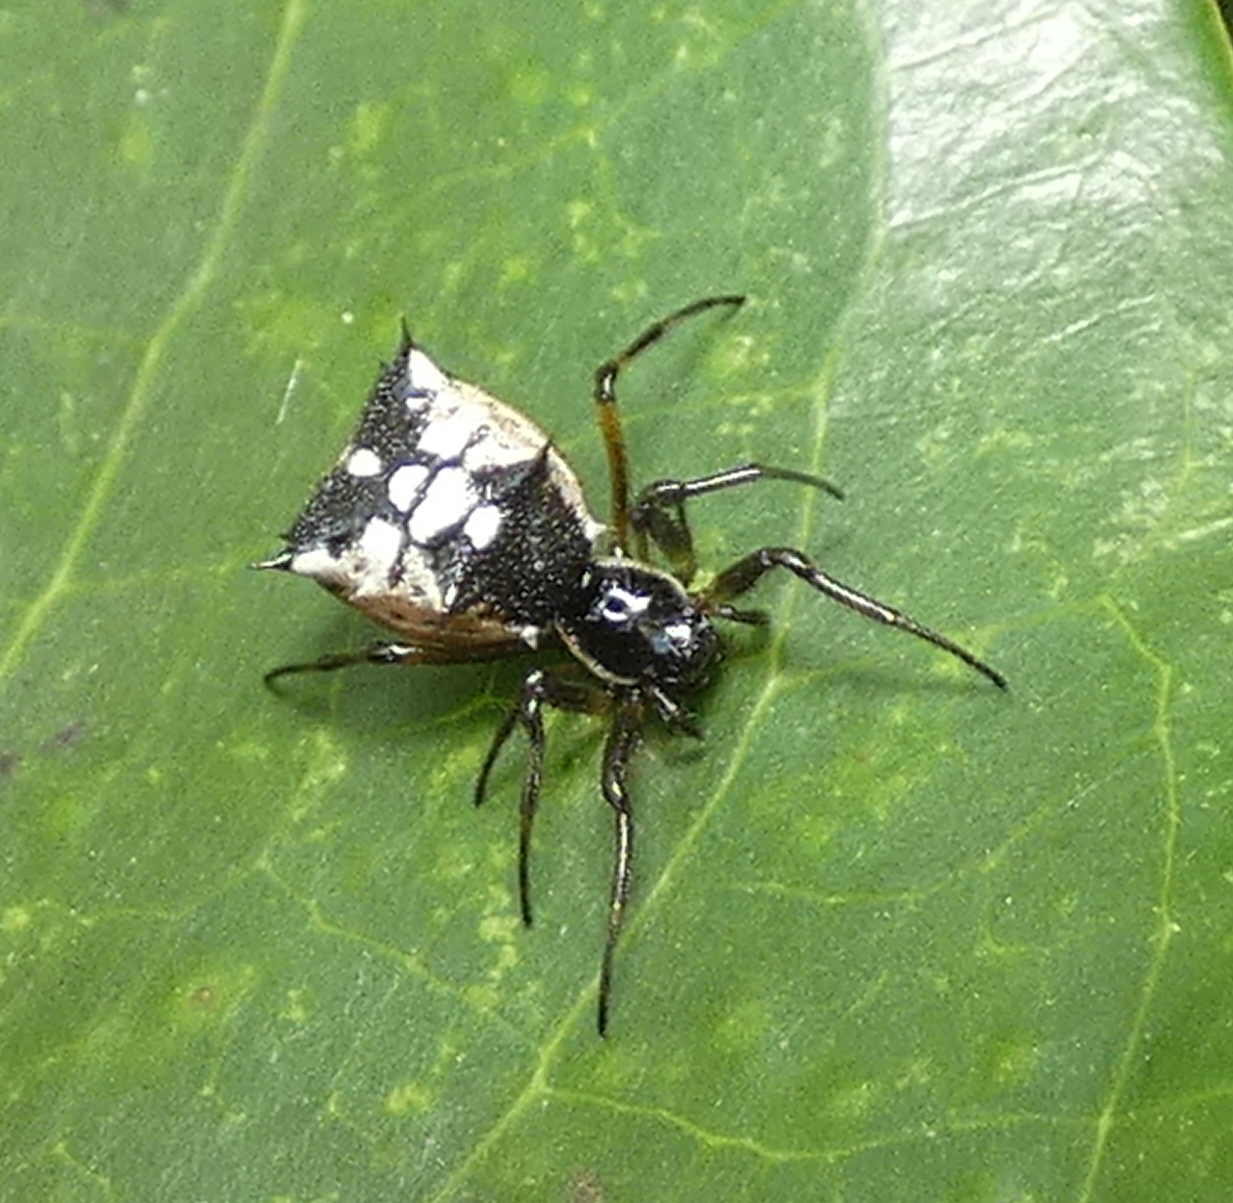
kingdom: Animalia
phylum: Arthropoda
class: Arachnida
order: Araneae
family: Araneidae
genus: Micrathena
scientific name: Micrathena picta
